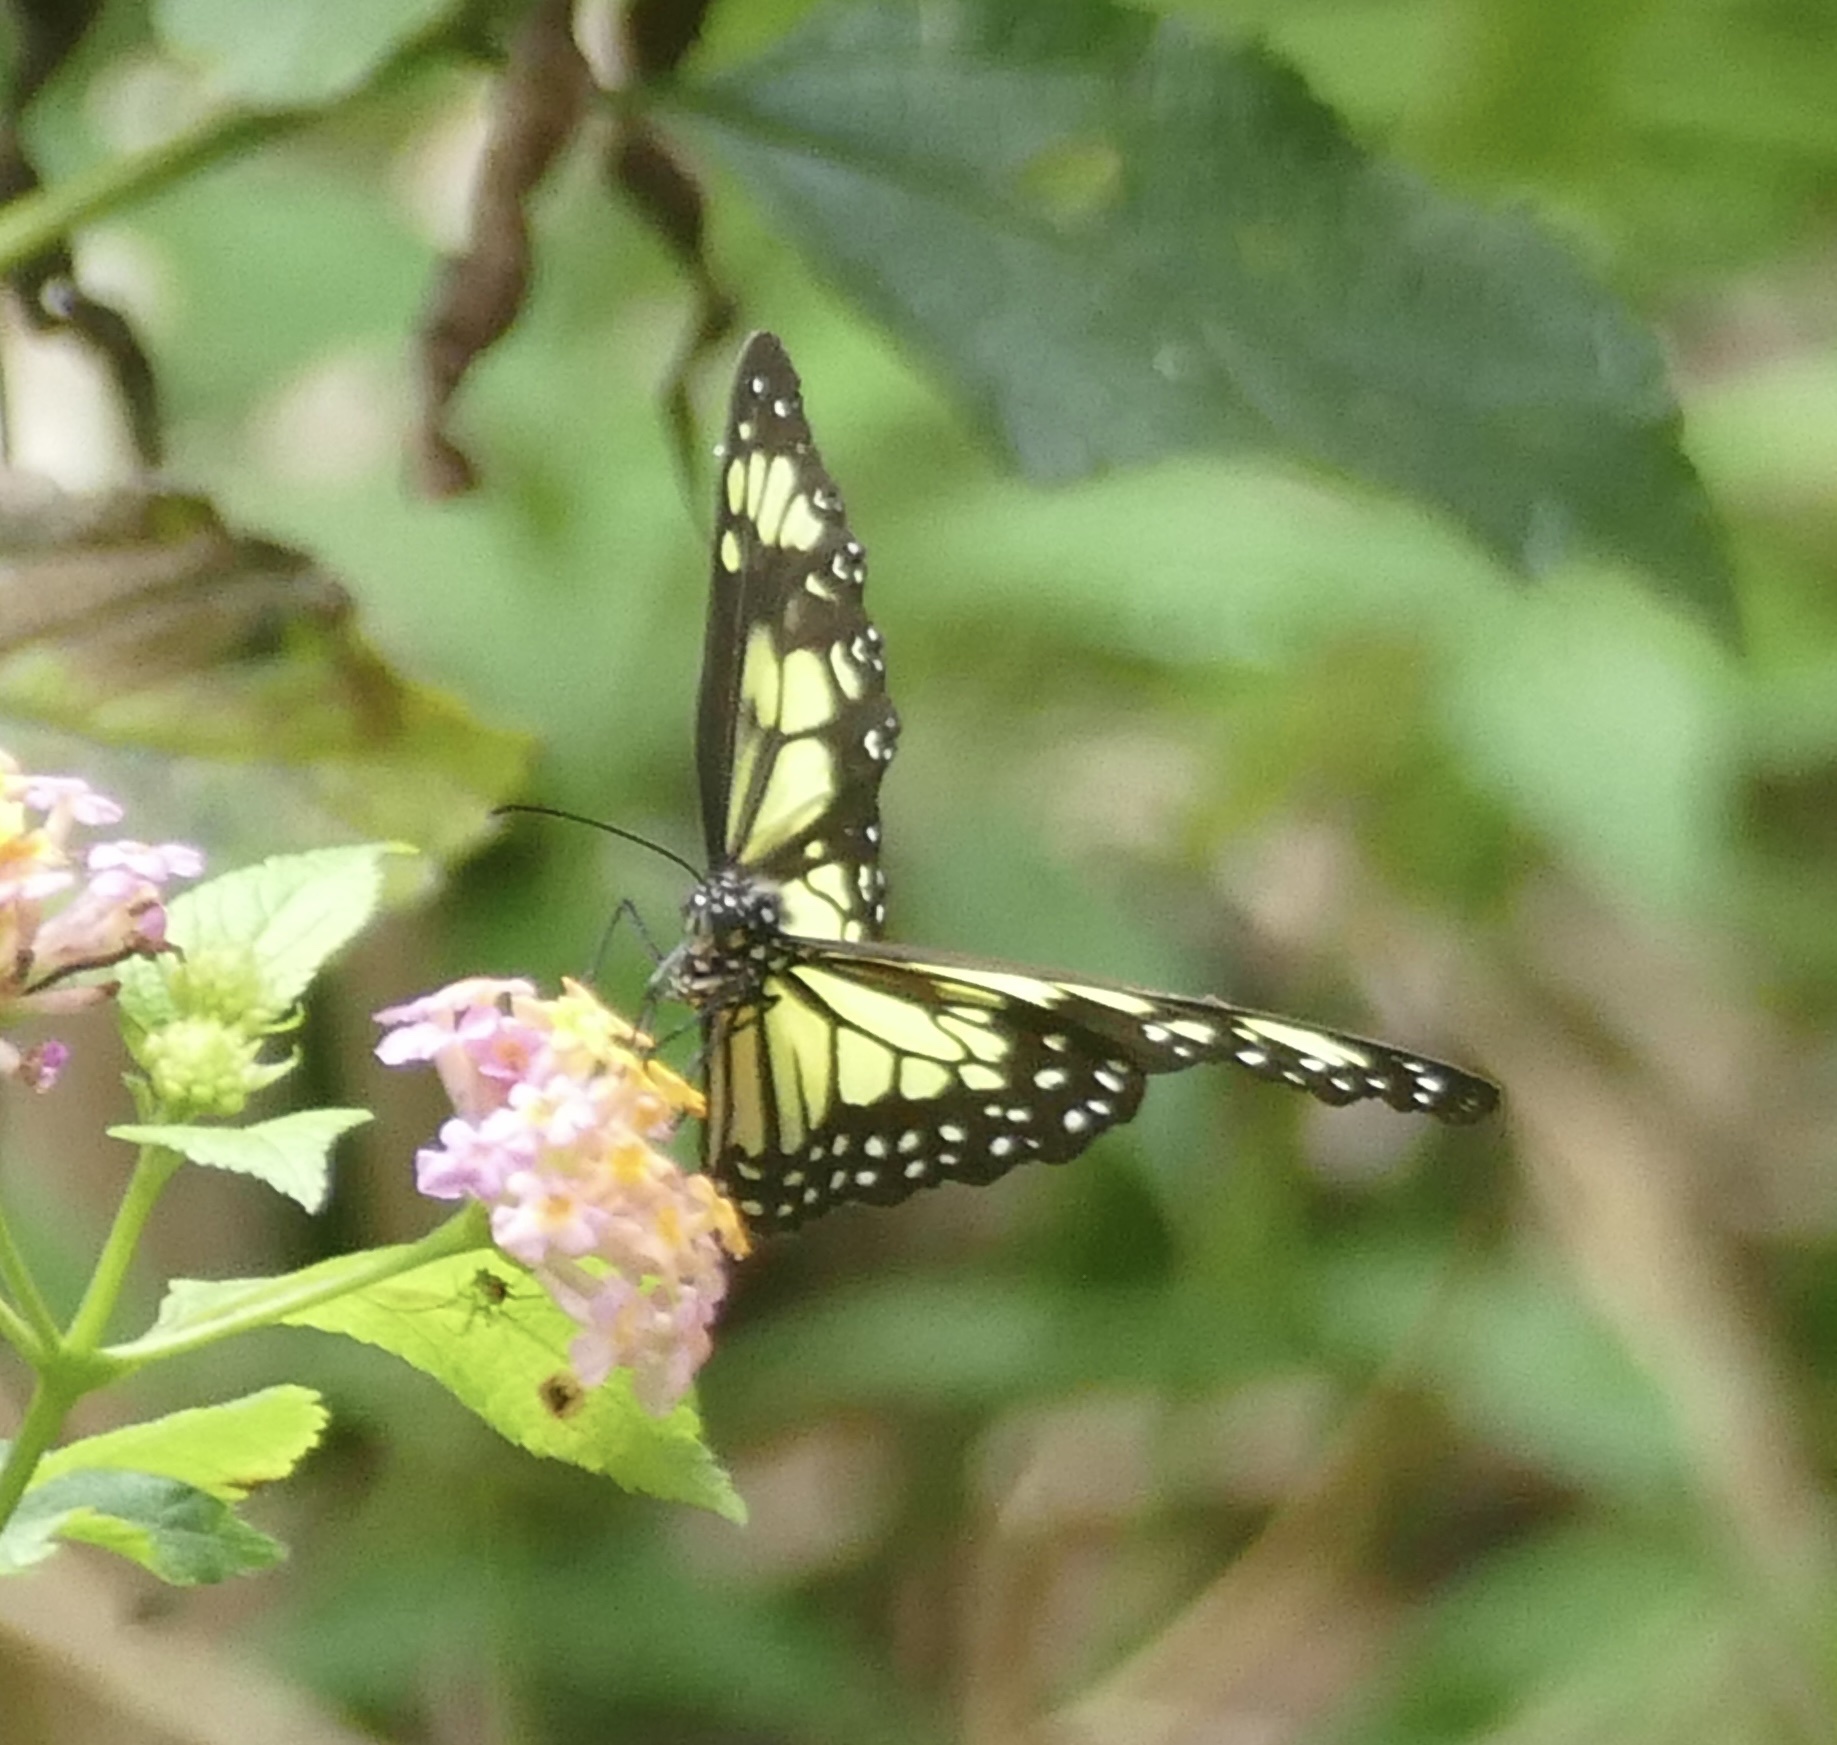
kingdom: Animalia
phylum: Arthropoda
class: Insecta
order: Lepidoptera
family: Nymphalidae
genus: Parantica
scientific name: Parantica cleona
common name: Yellow tiger
